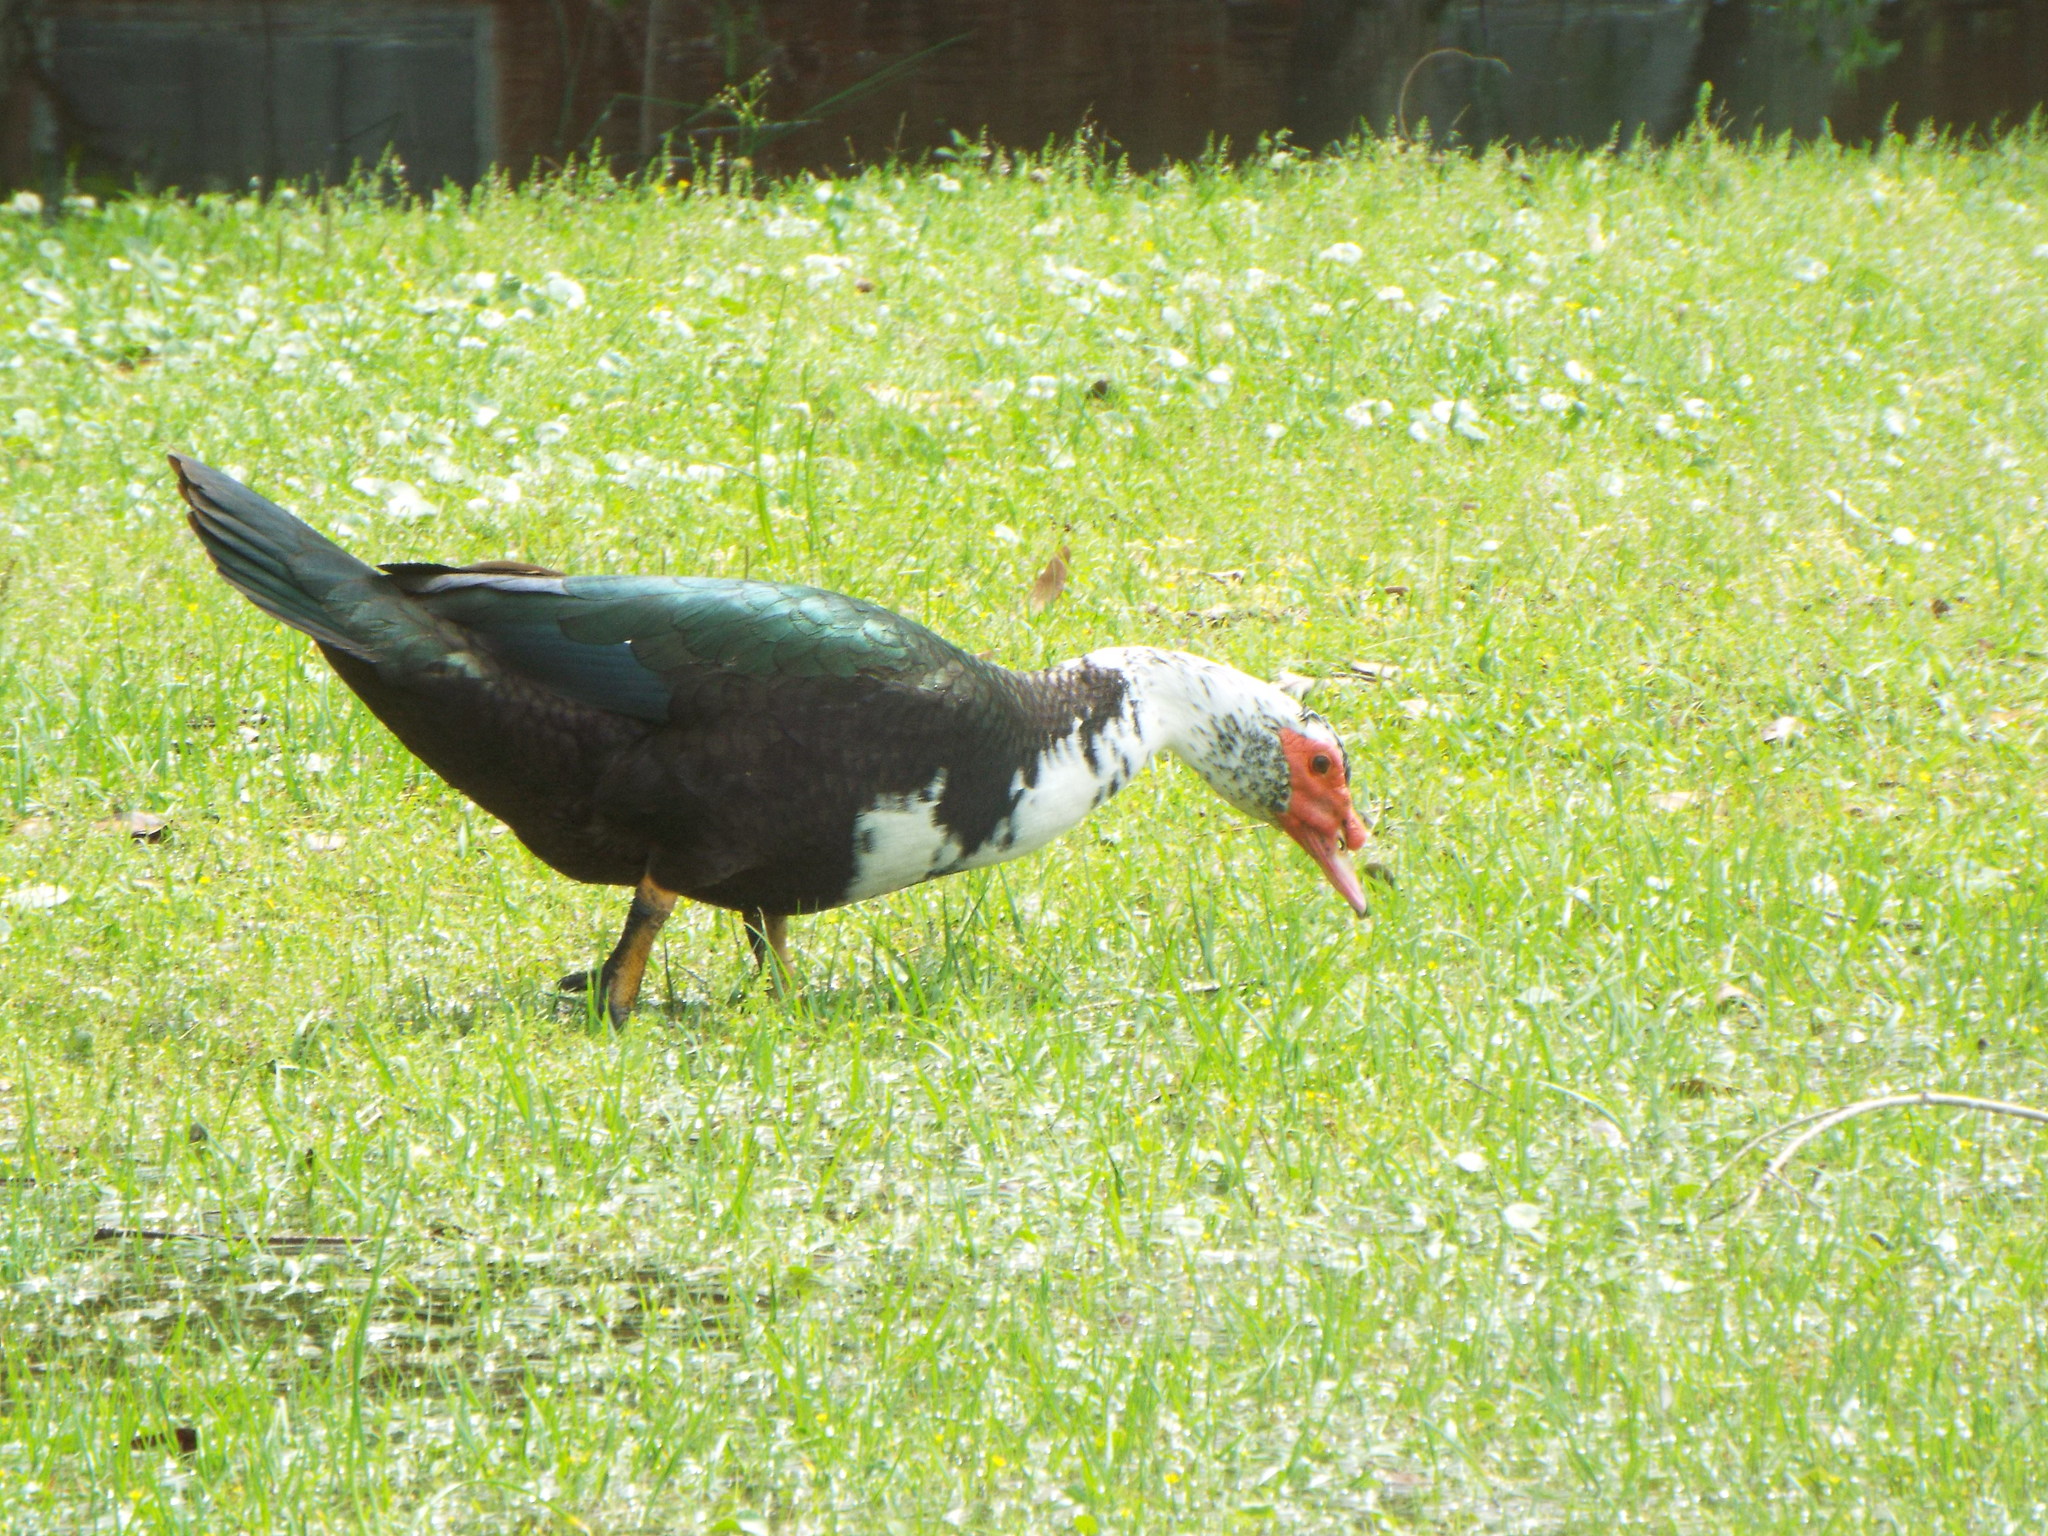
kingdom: Animalia
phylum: Chordata
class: Aves
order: Anseriformes
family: Anatidae
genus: Cairina
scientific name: Cairina moschata
